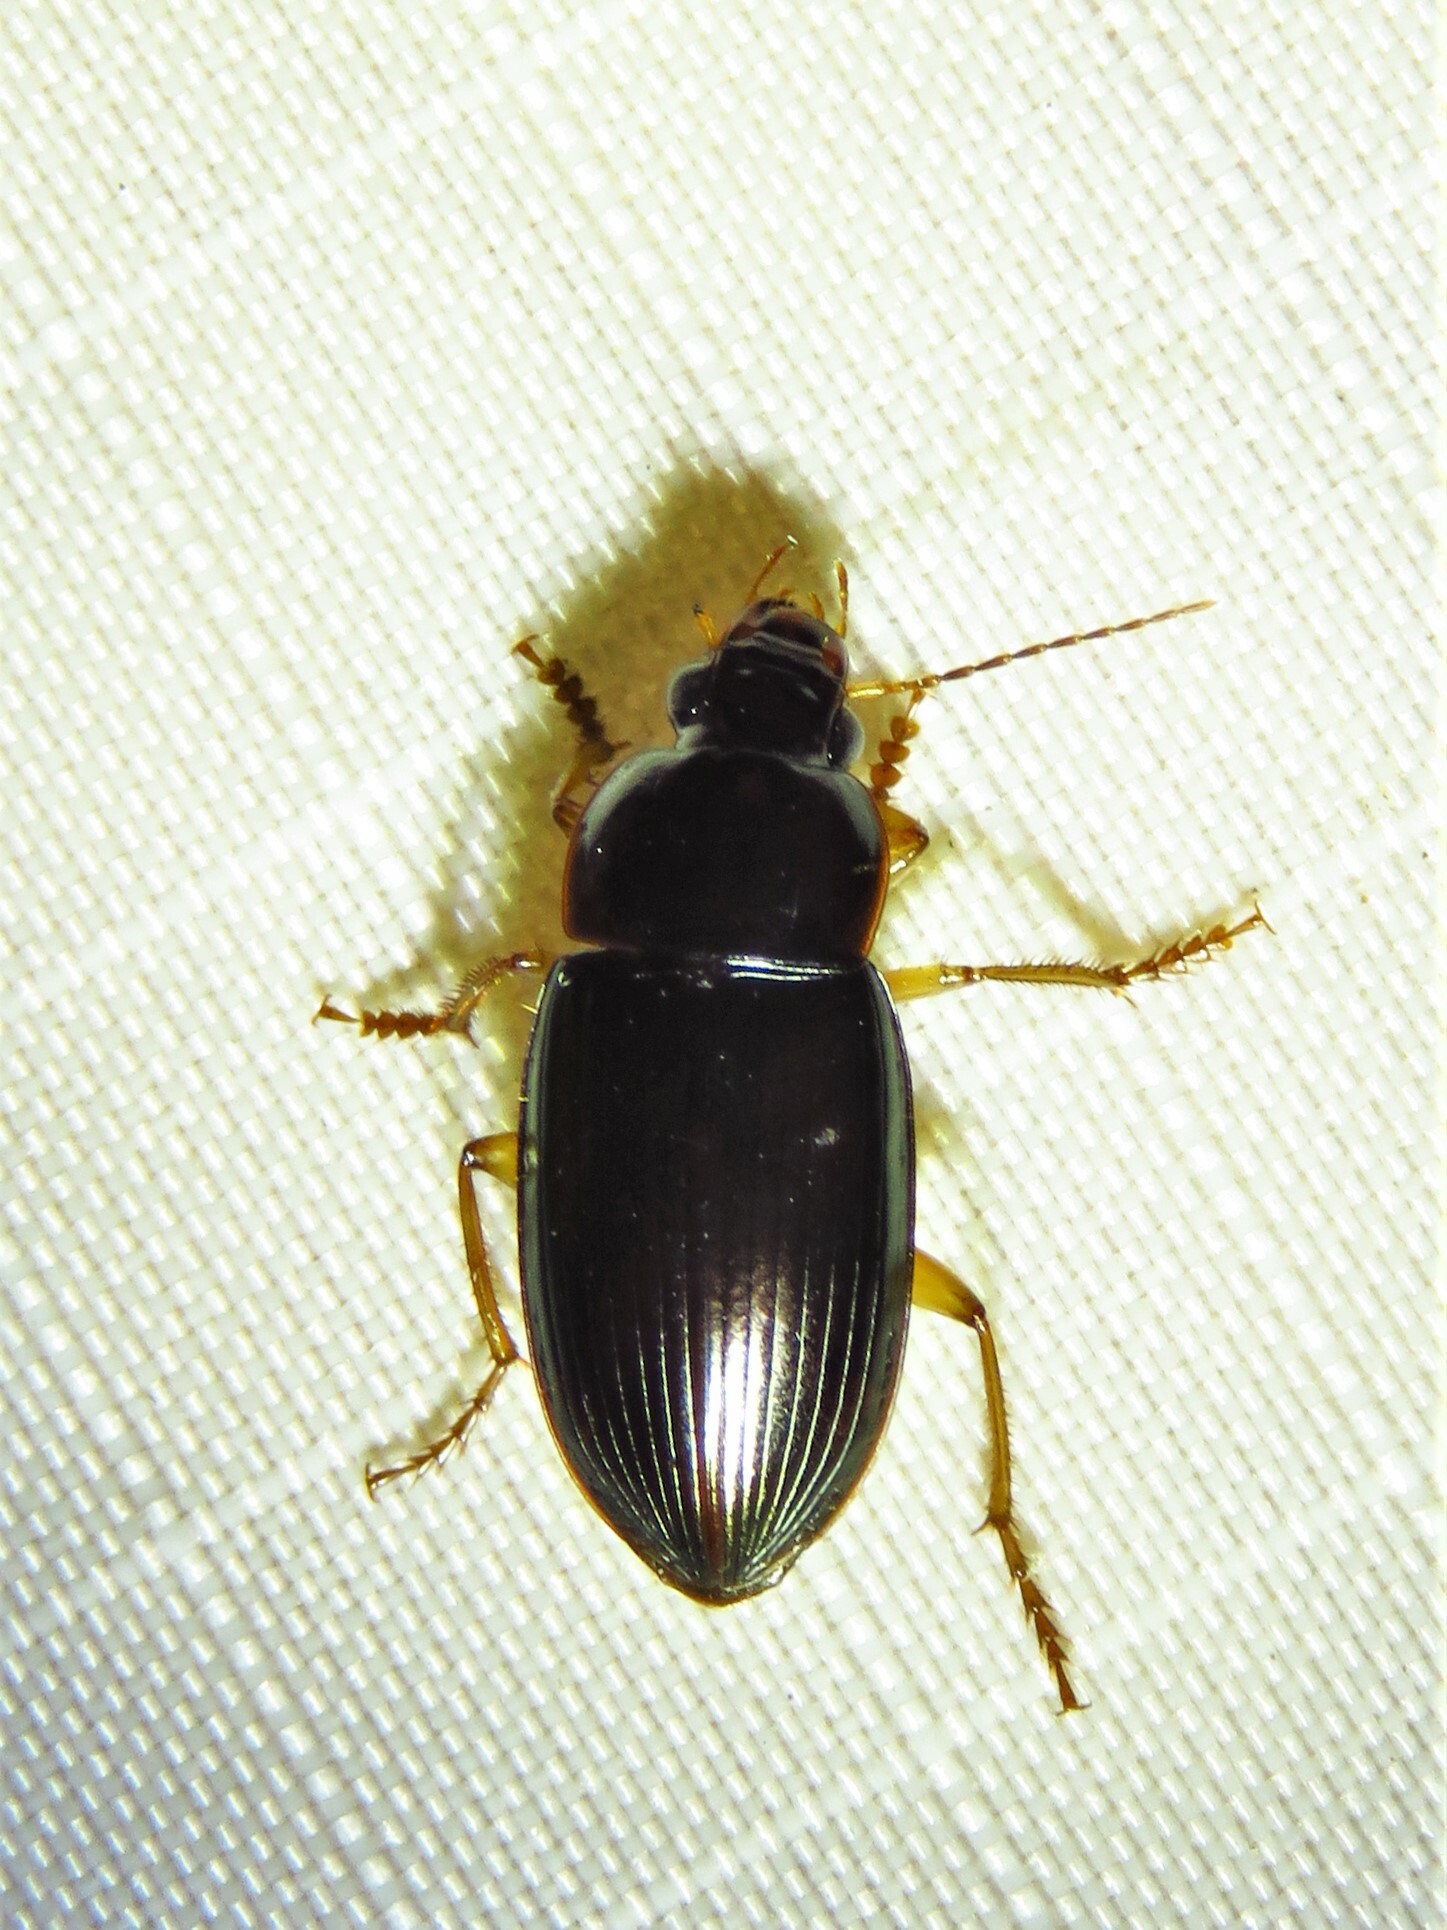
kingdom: Animalia
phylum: Arthropoda
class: Insecta
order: Coleoptera
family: Carabidae
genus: Notiobia
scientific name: Notiobia terminata
